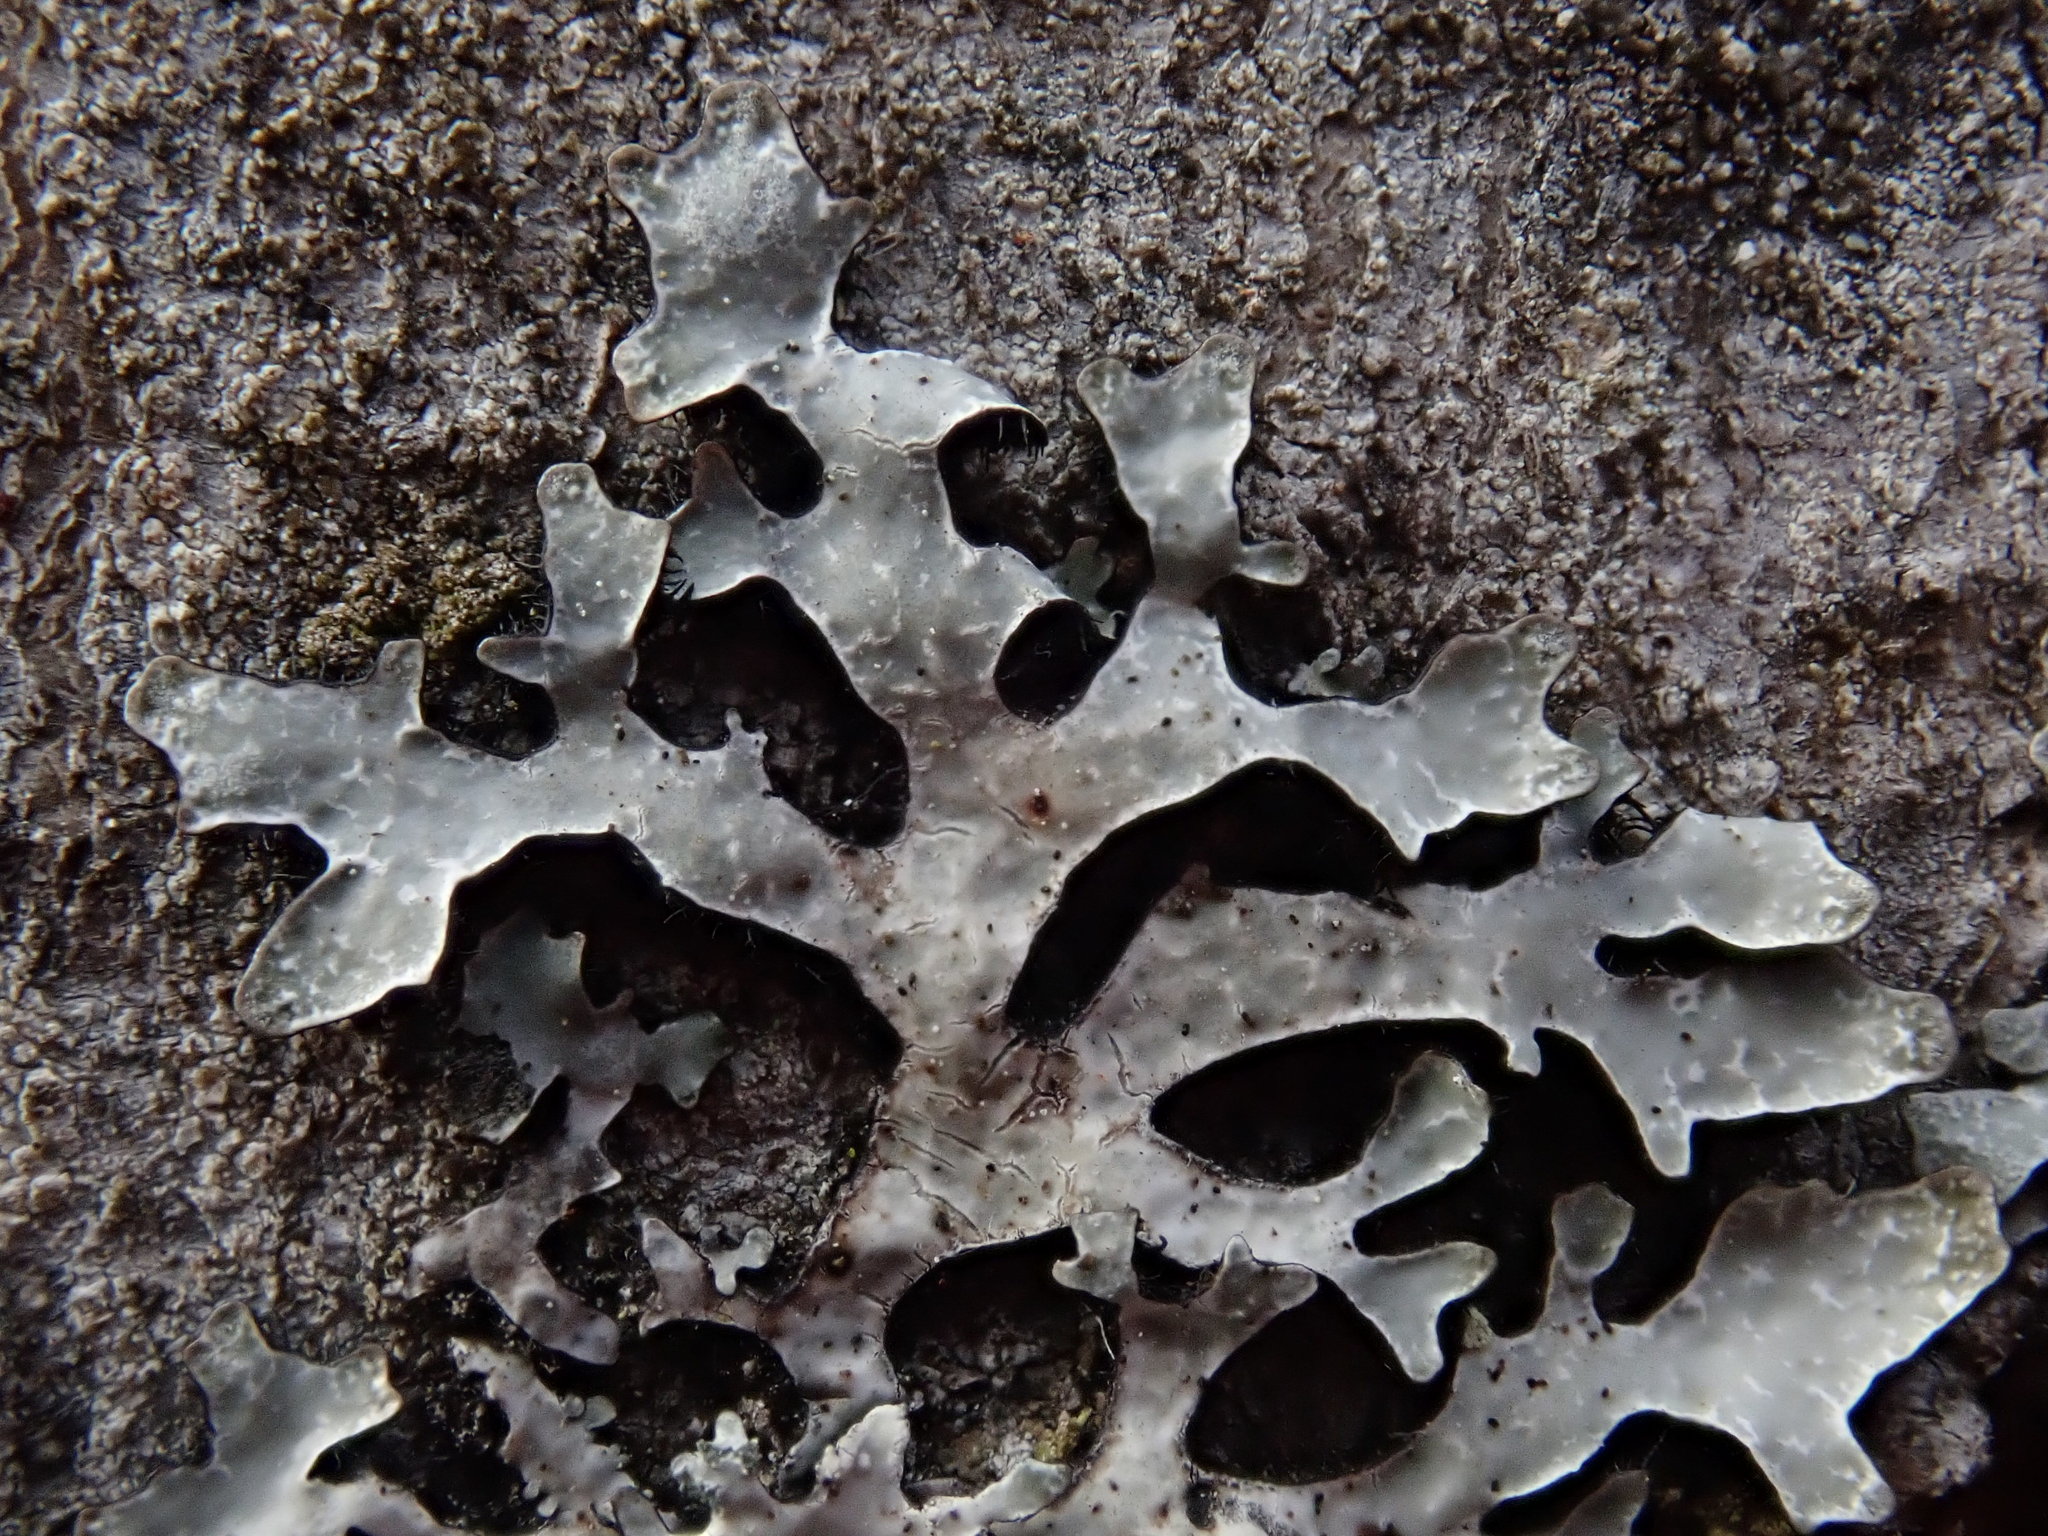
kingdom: Fungi
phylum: Ascomycota
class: Lecanoromycetes
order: Lecanorales
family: Parmeliaceae
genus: Parmelia
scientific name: Parmelia sulcata
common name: Netted shield lichen
